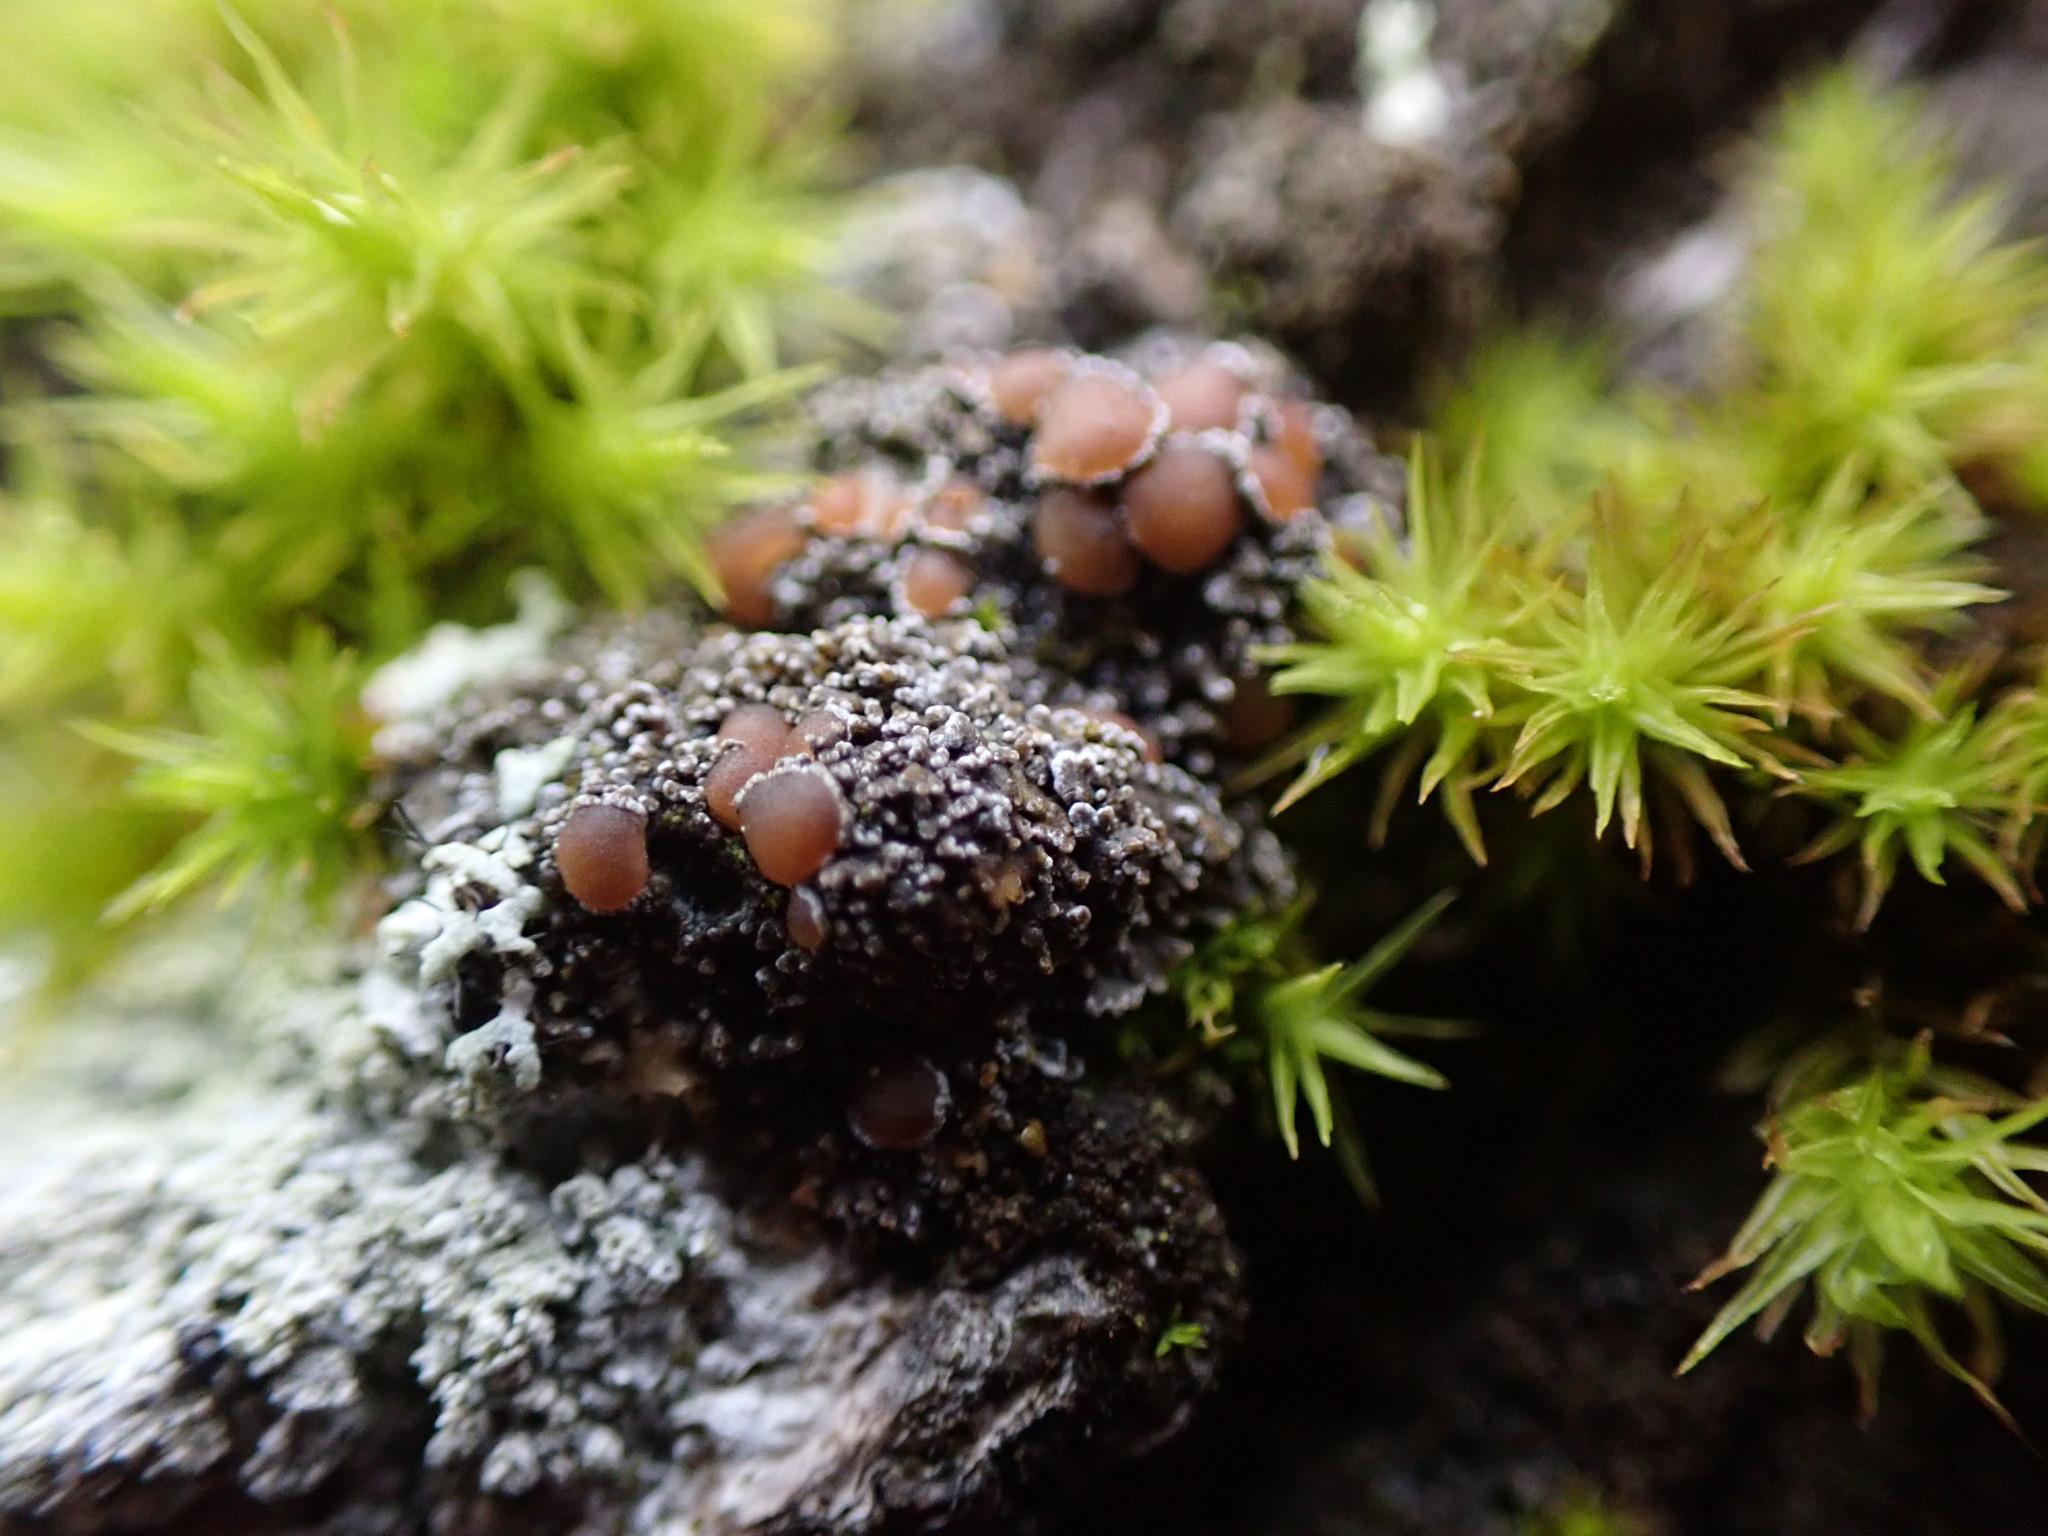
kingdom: Fungi
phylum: Ascomycota
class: Lecanoromycetes
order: Peltigerales
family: Pannariaceae
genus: Fuscopannaria
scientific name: Fuscopannaria leucostictoides
